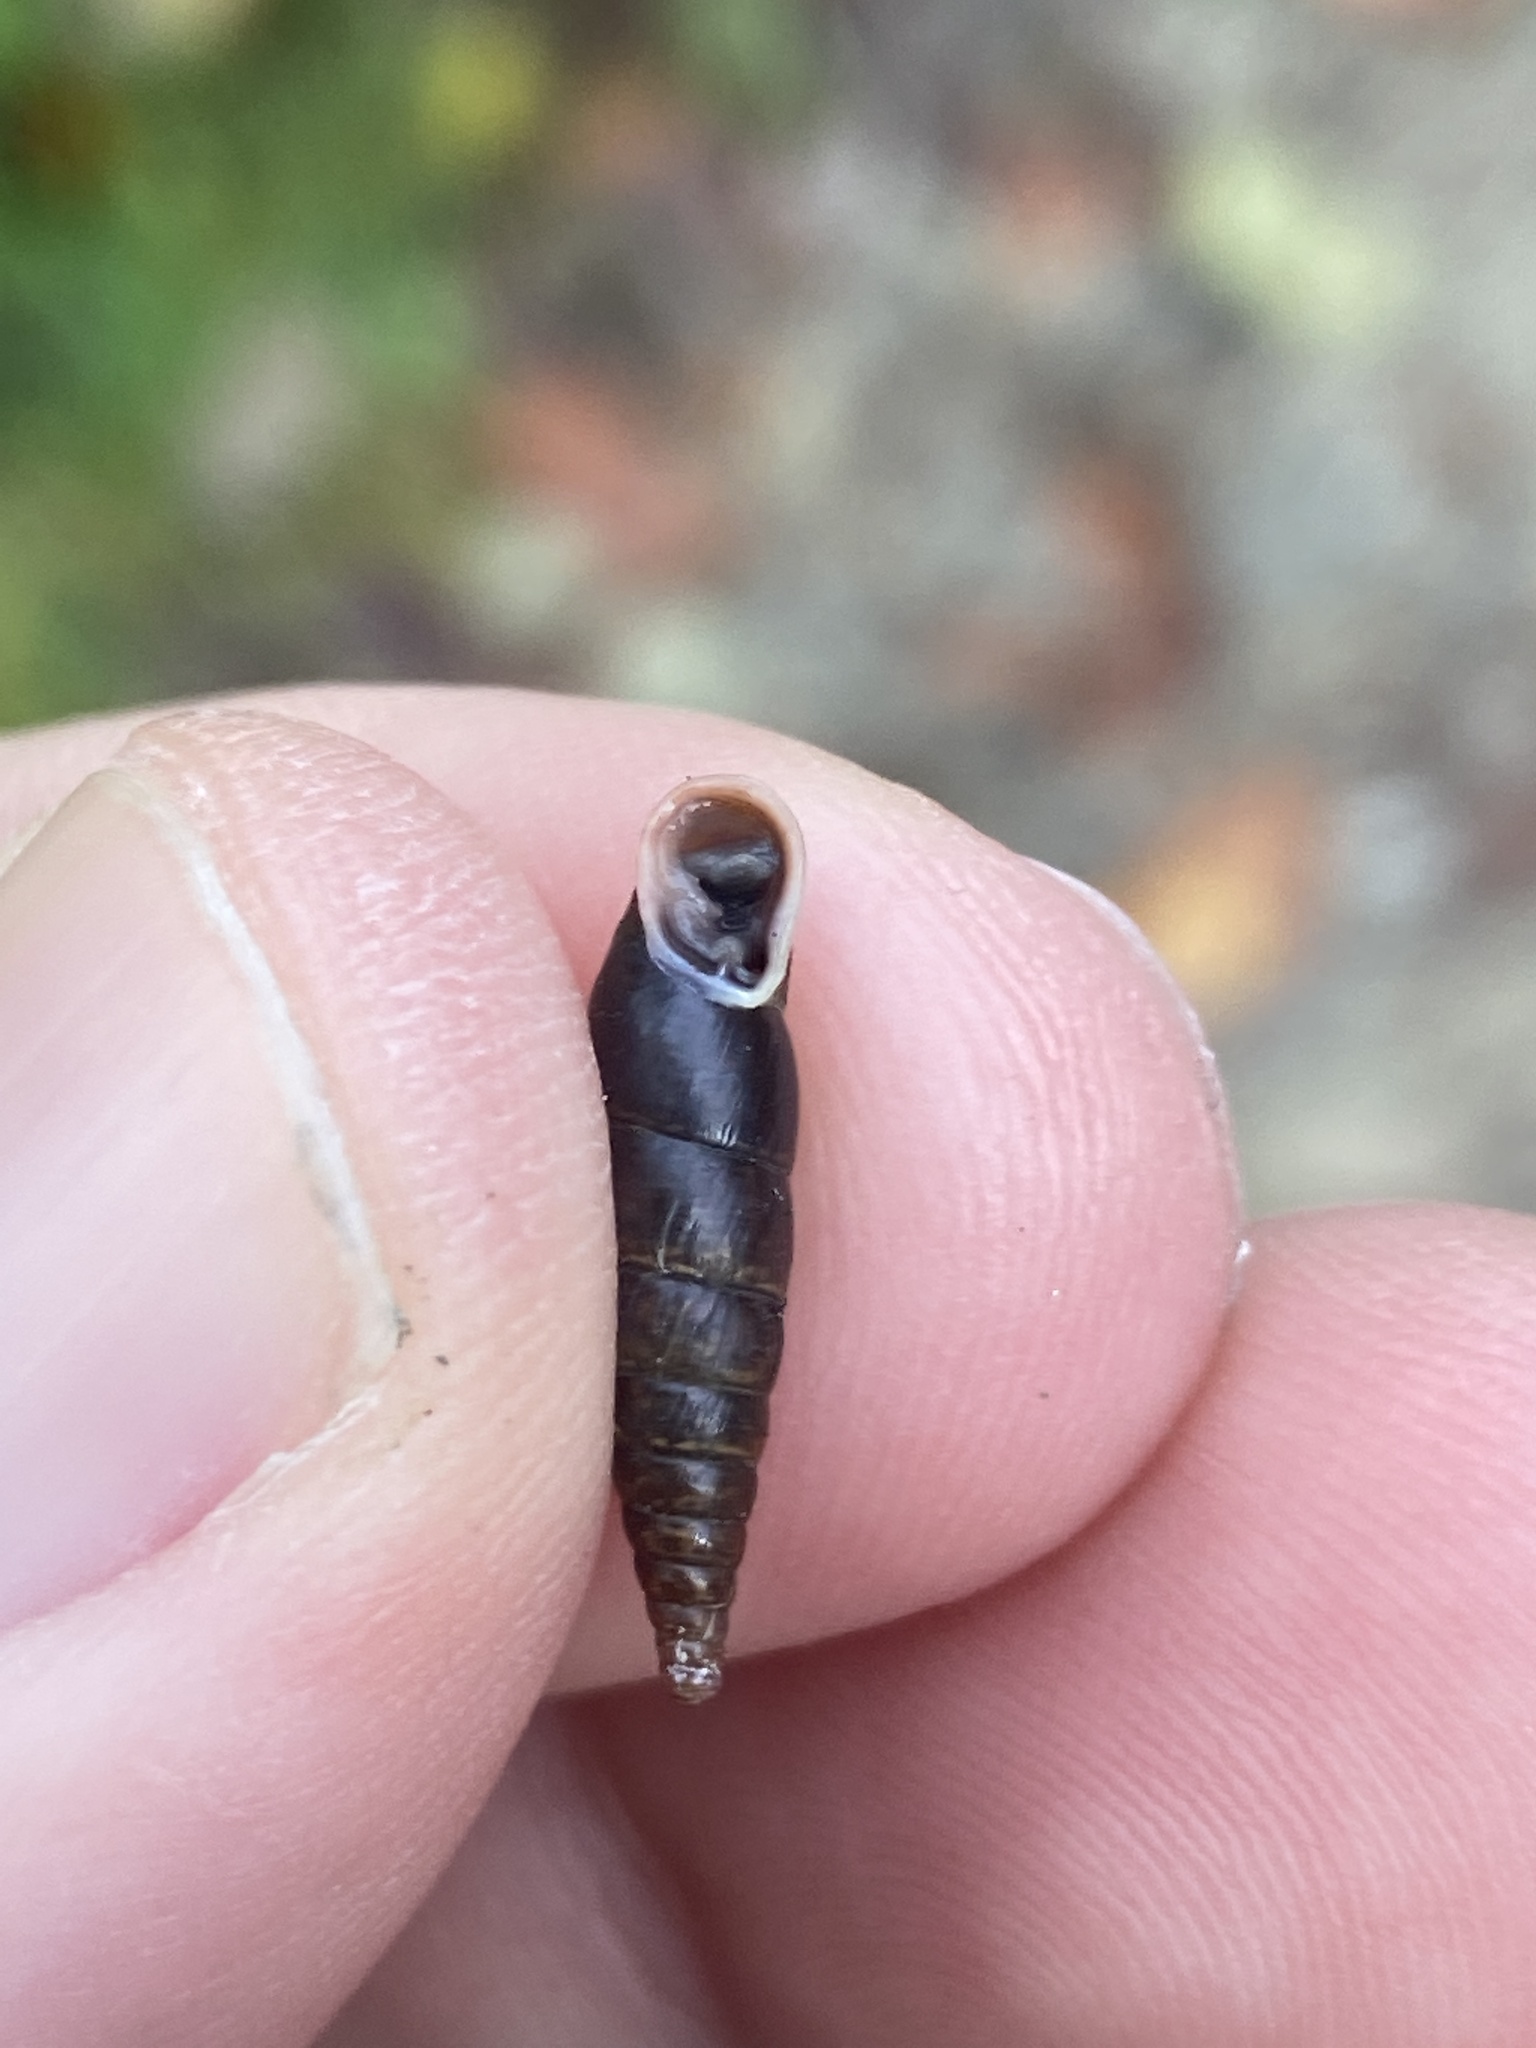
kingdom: Animalia
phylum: Mollusca
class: Gastropoda
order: Stylommatophora
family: Clausiliidae
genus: Cochlodina
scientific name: Cochlodina laminata
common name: Plaited door snail
